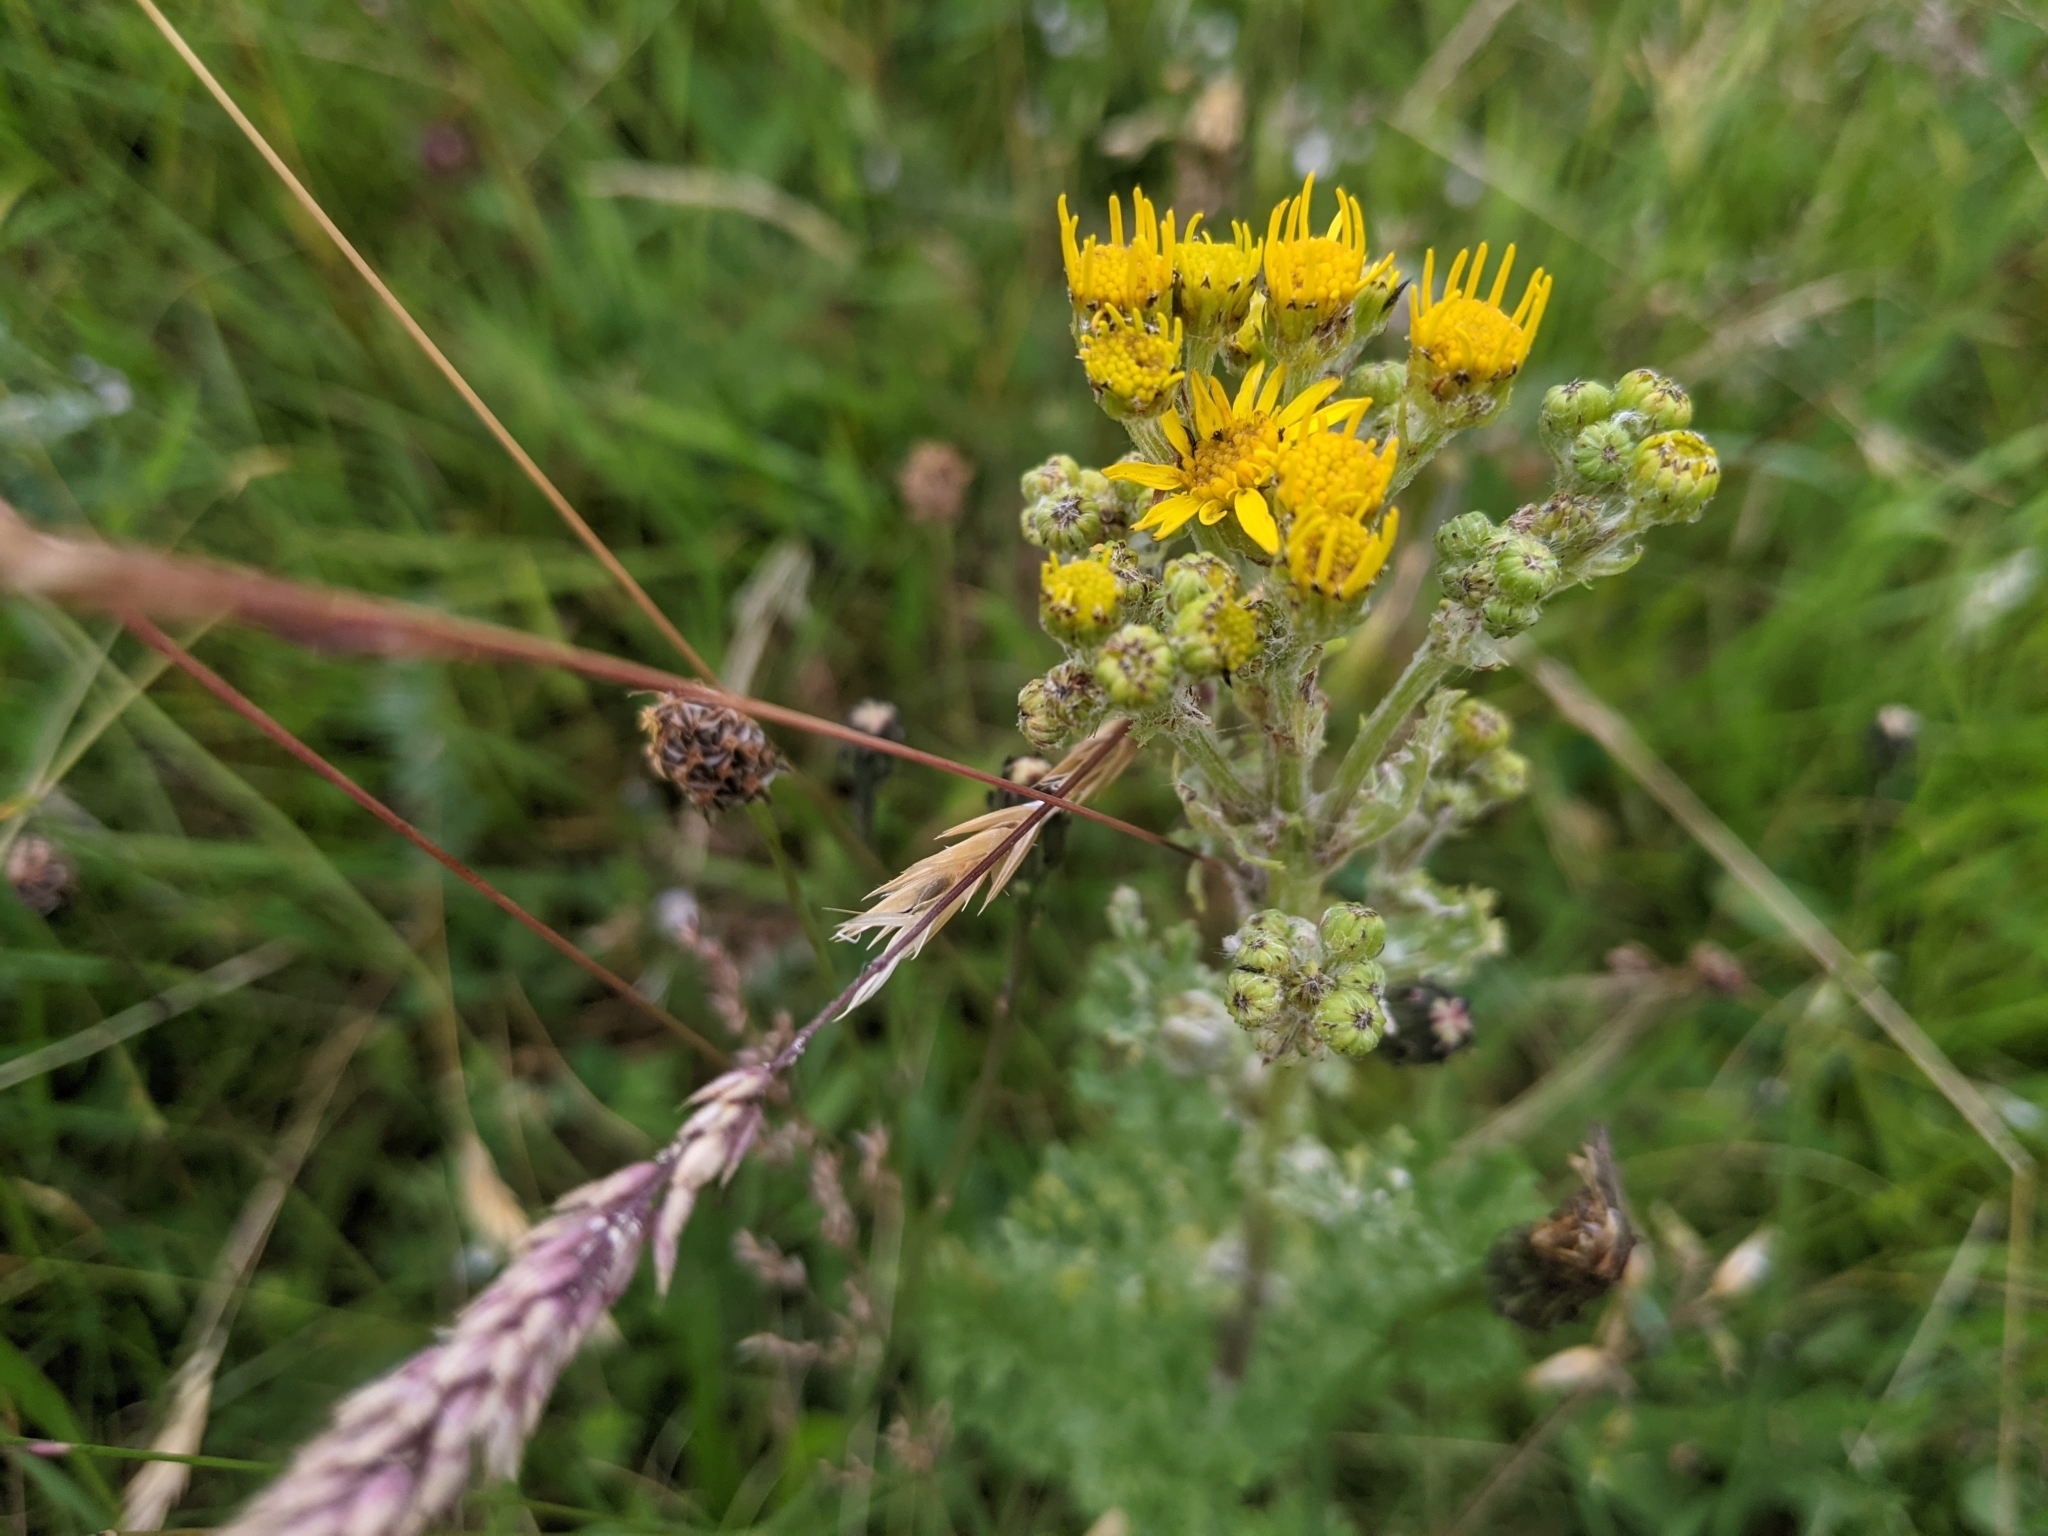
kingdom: Plantae
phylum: Tracheophyta
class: Magnoliopsida
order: Asterales
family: Asteraceae
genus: Jacobaea
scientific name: Jacobaea vulgaris
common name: Stinking willie
